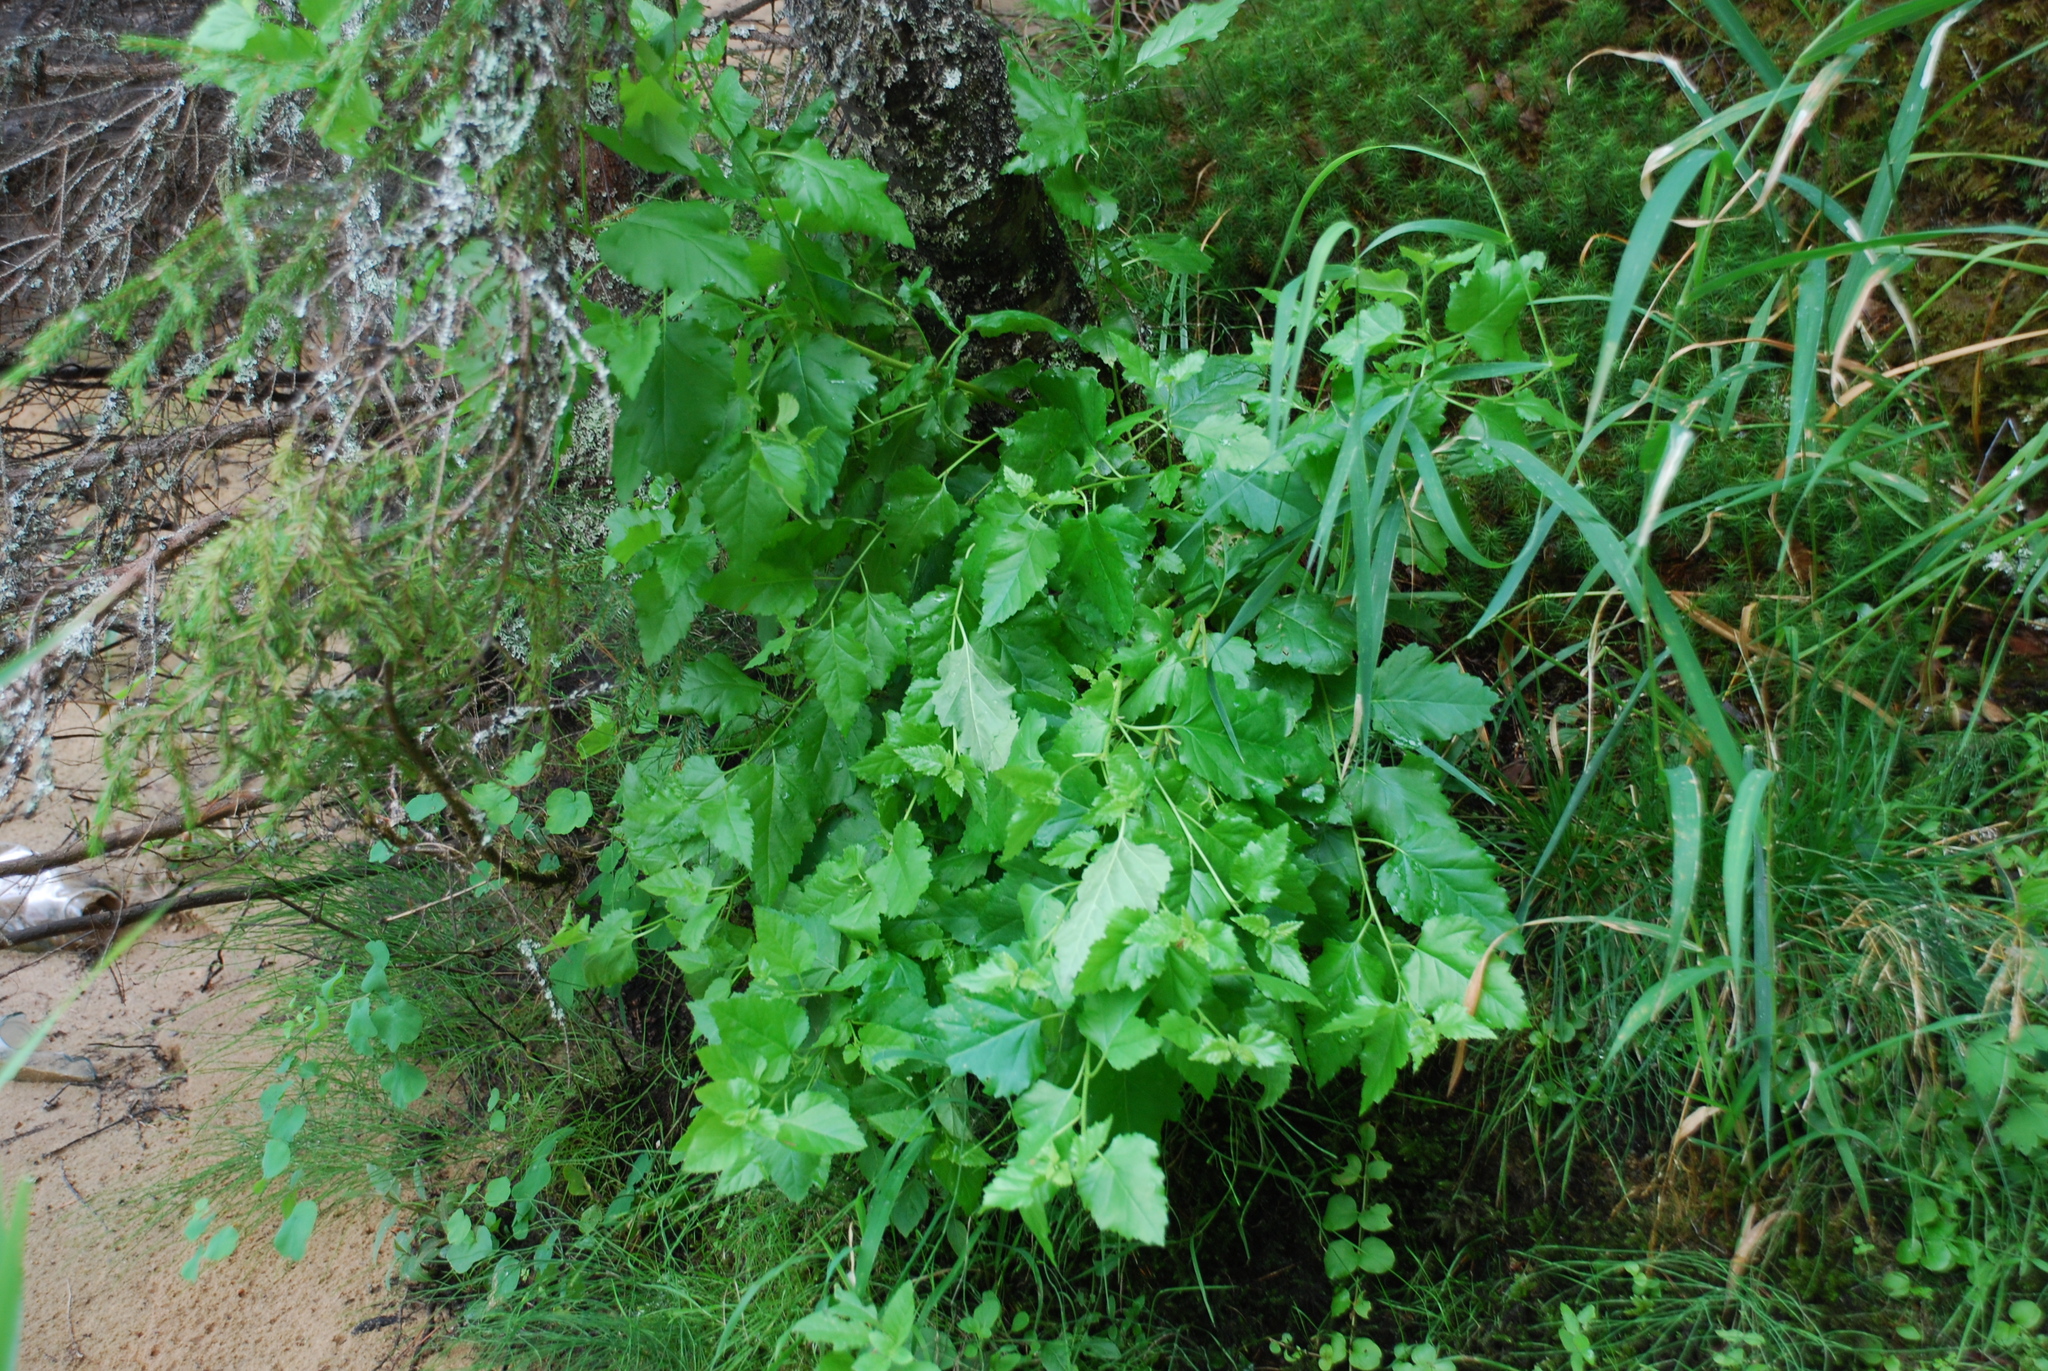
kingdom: Plantae
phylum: Tracheophyta
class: Magnoliopsida
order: Fagales
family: Betulaceae
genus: Betula
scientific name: Betula pubescens
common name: Downy birch
